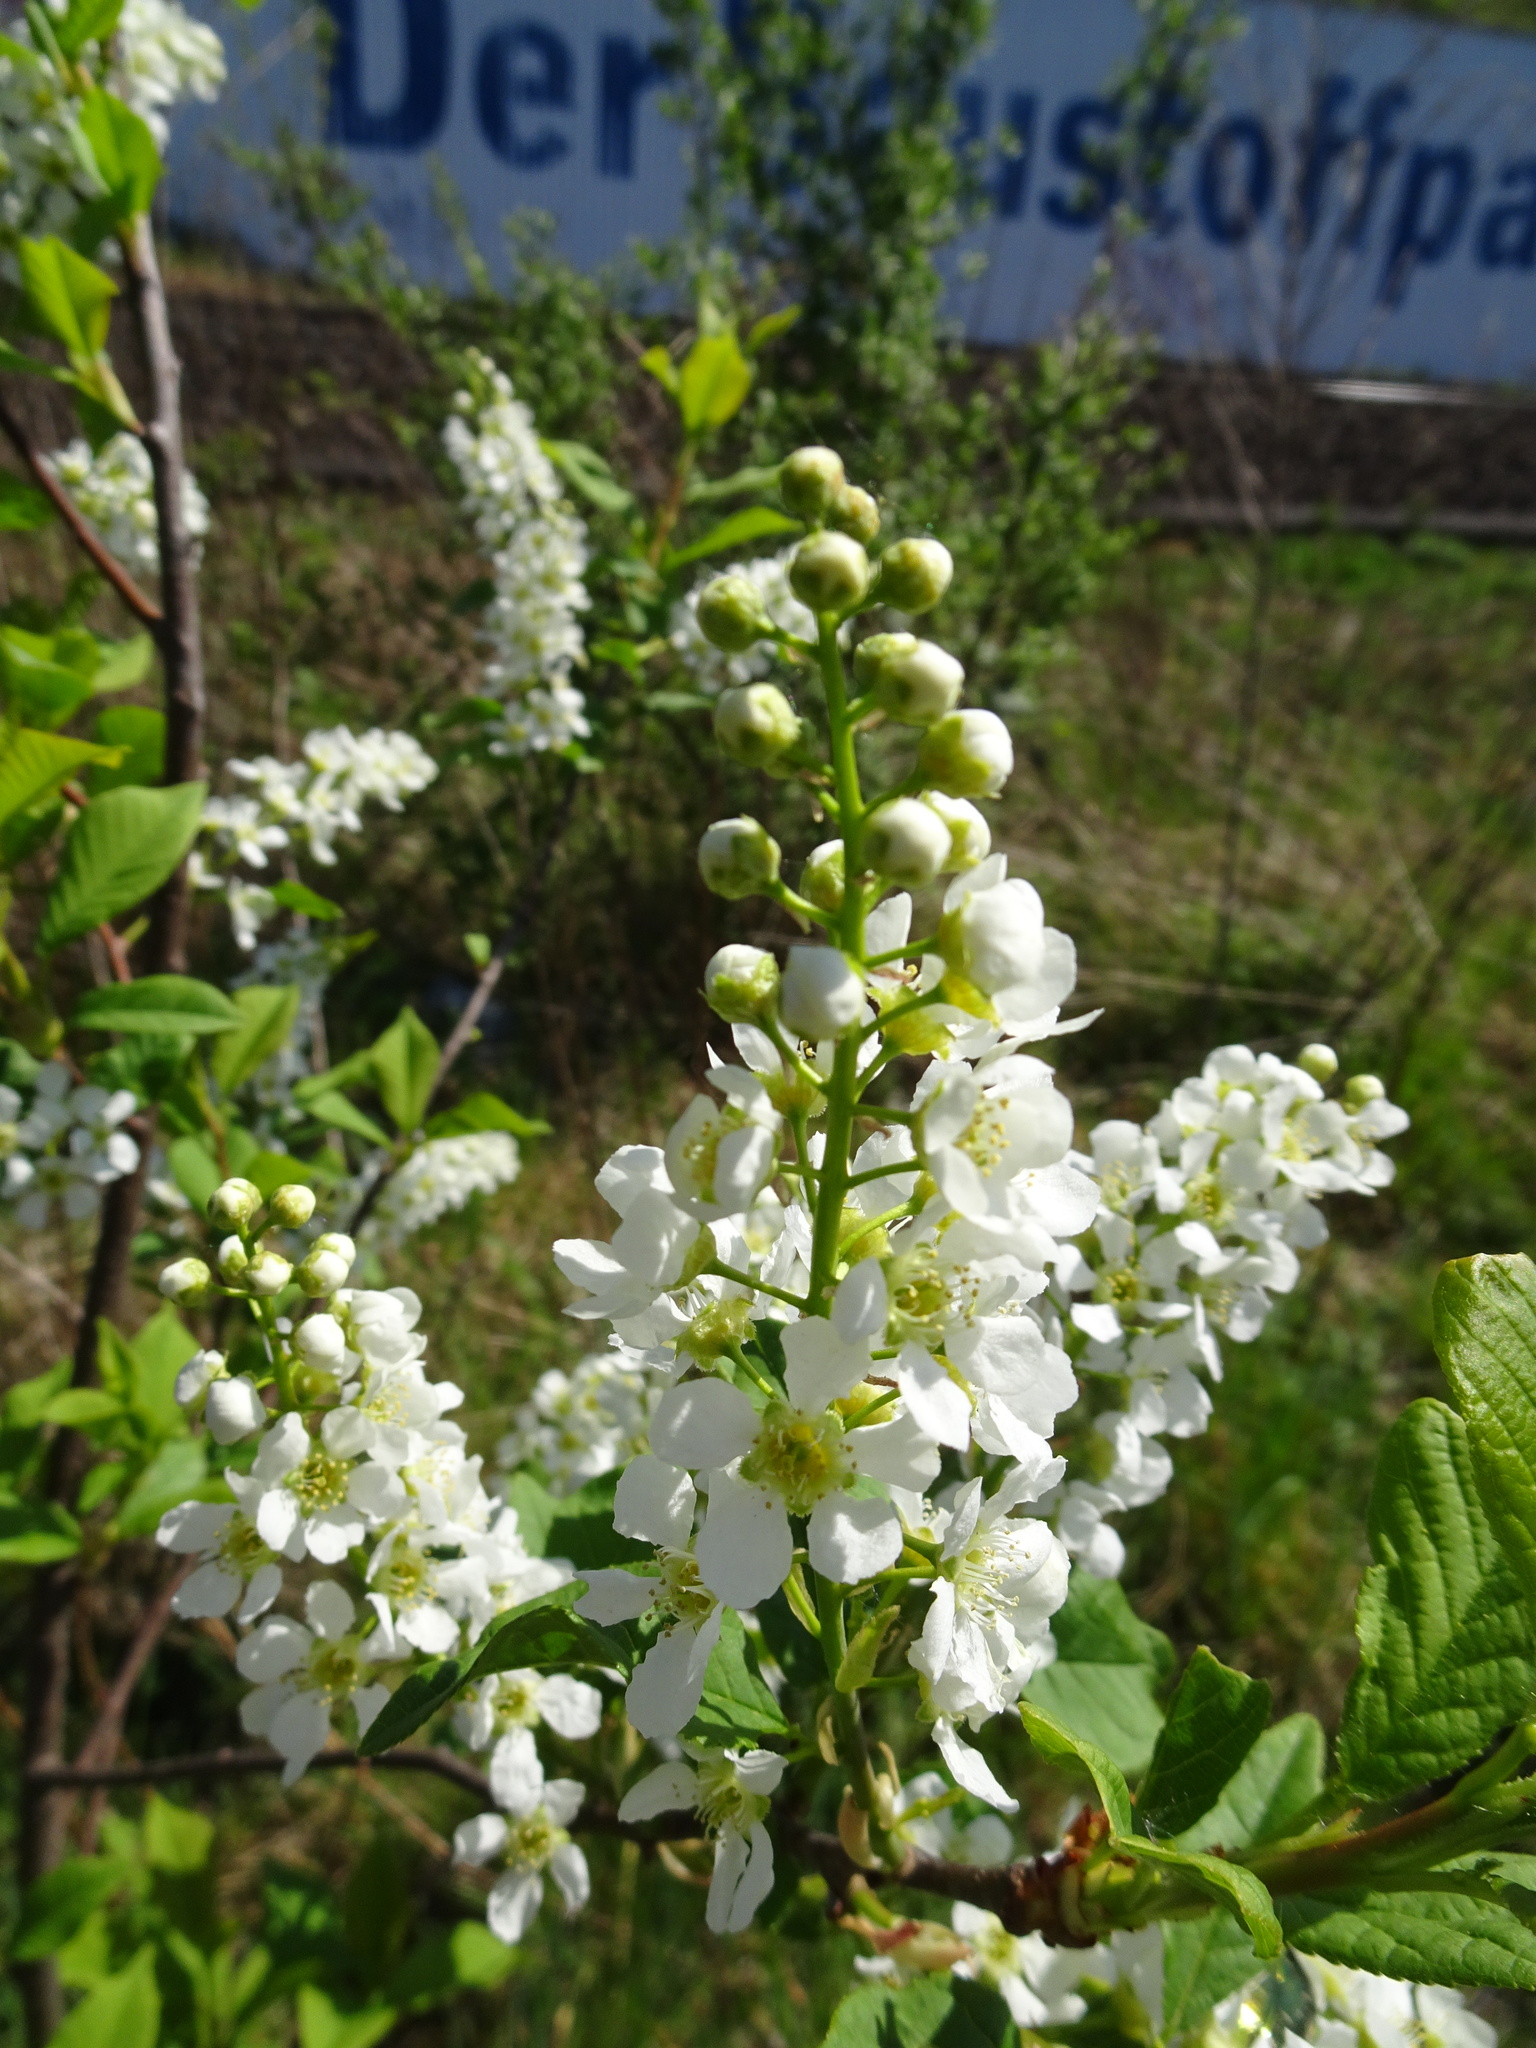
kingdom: Plantae
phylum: Tracheophyta
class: Magnoliopsida
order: Rosales
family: Rosaceae
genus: Prunus
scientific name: Prunus padus
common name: Bird cherry
